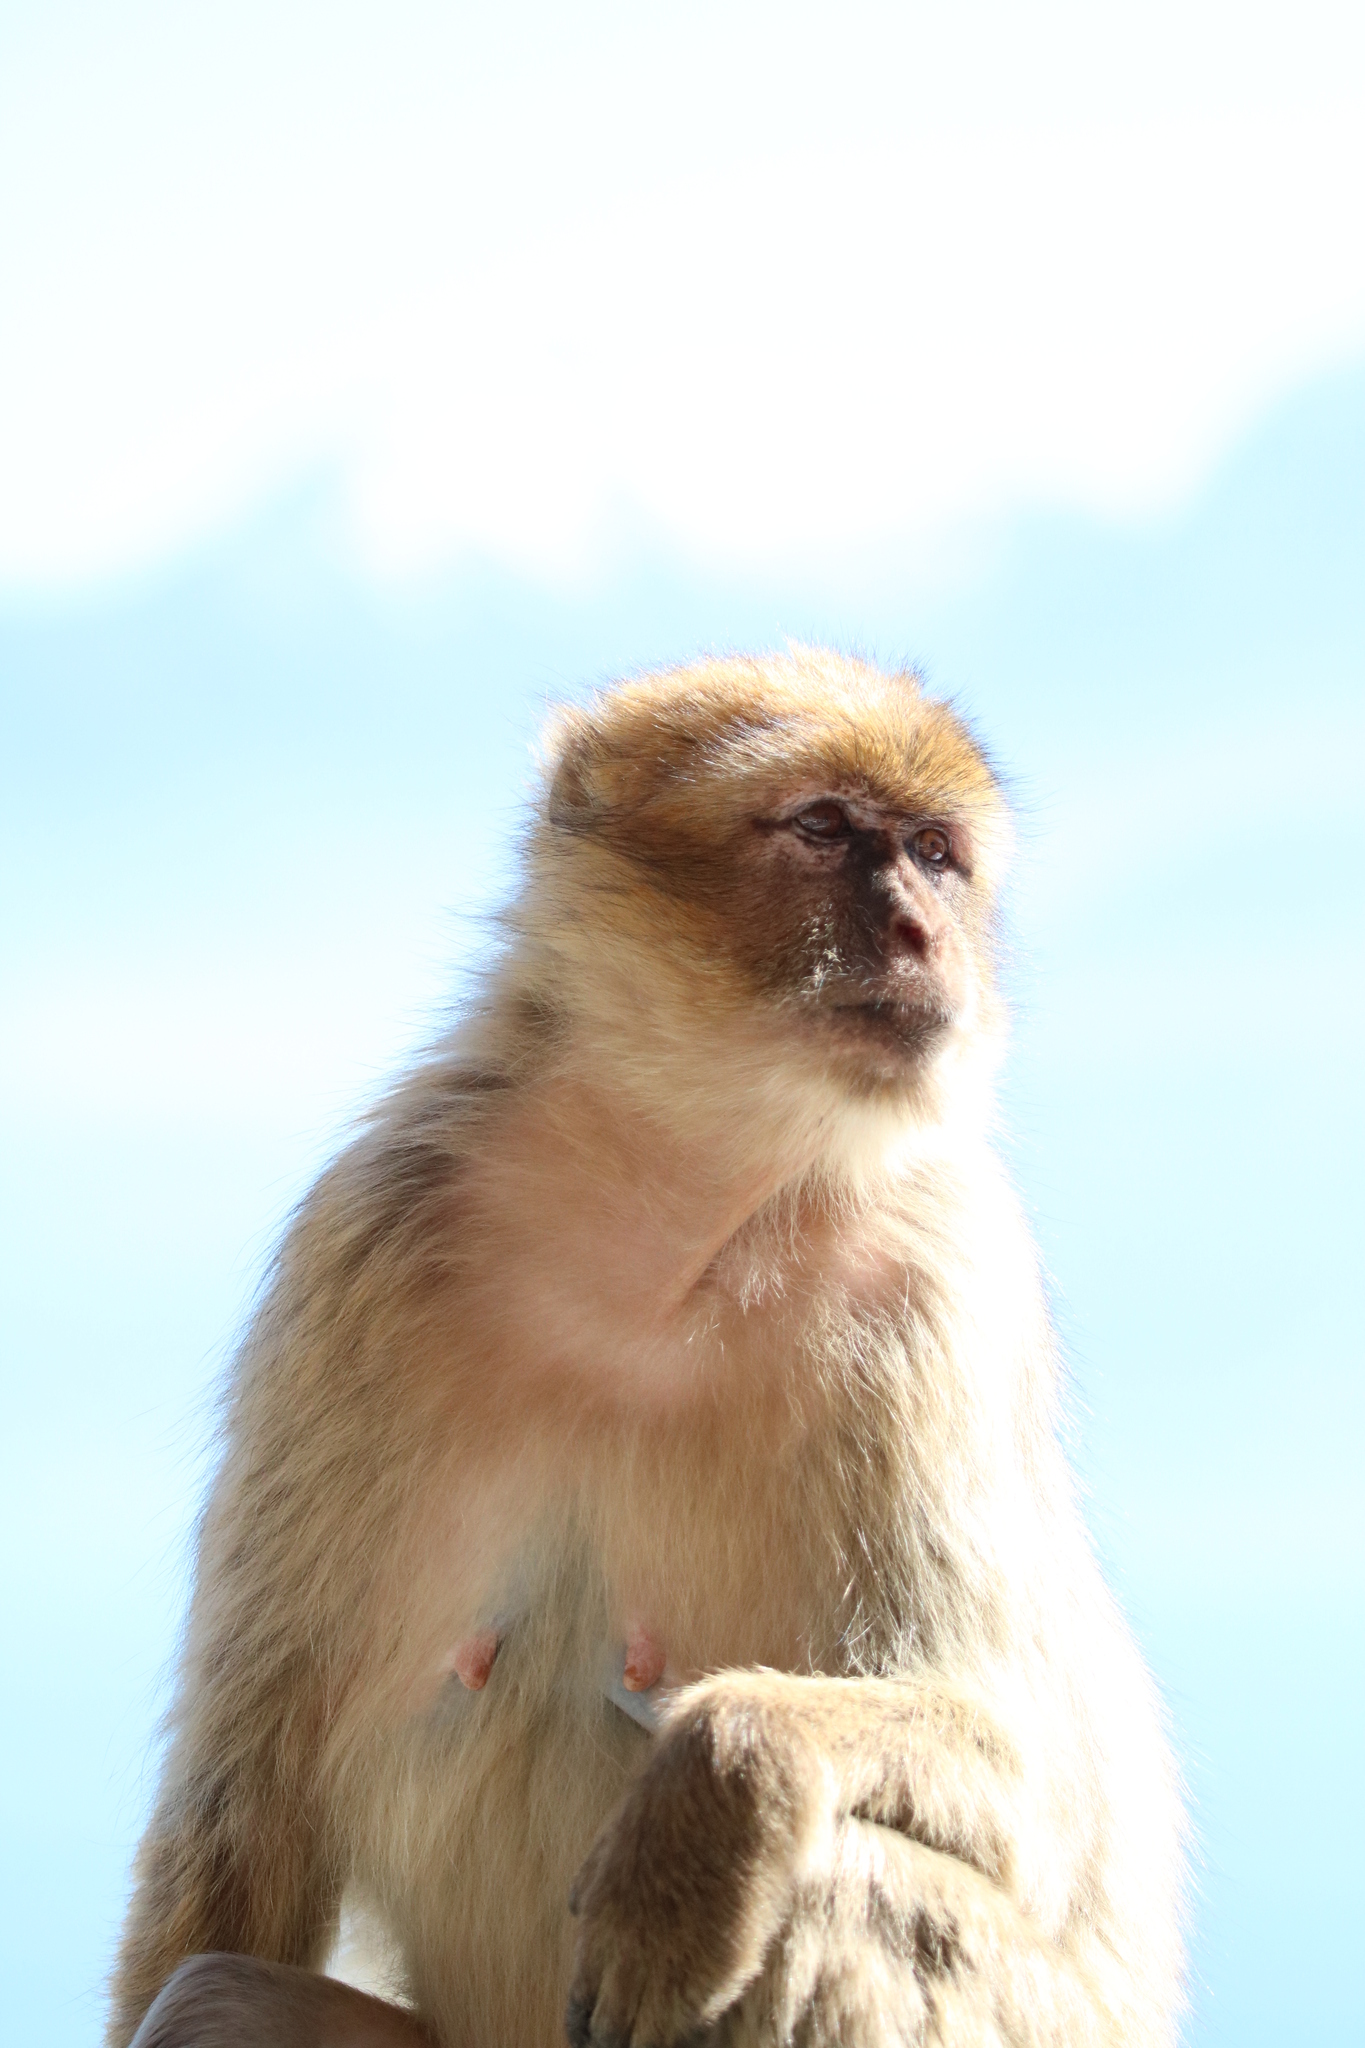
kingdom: Animalia
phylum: Chordata
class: Mammalia
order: Primates
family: Cercopithecidae
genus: Macaca
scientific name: Macaca sylvanus
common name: Barbary macaque
